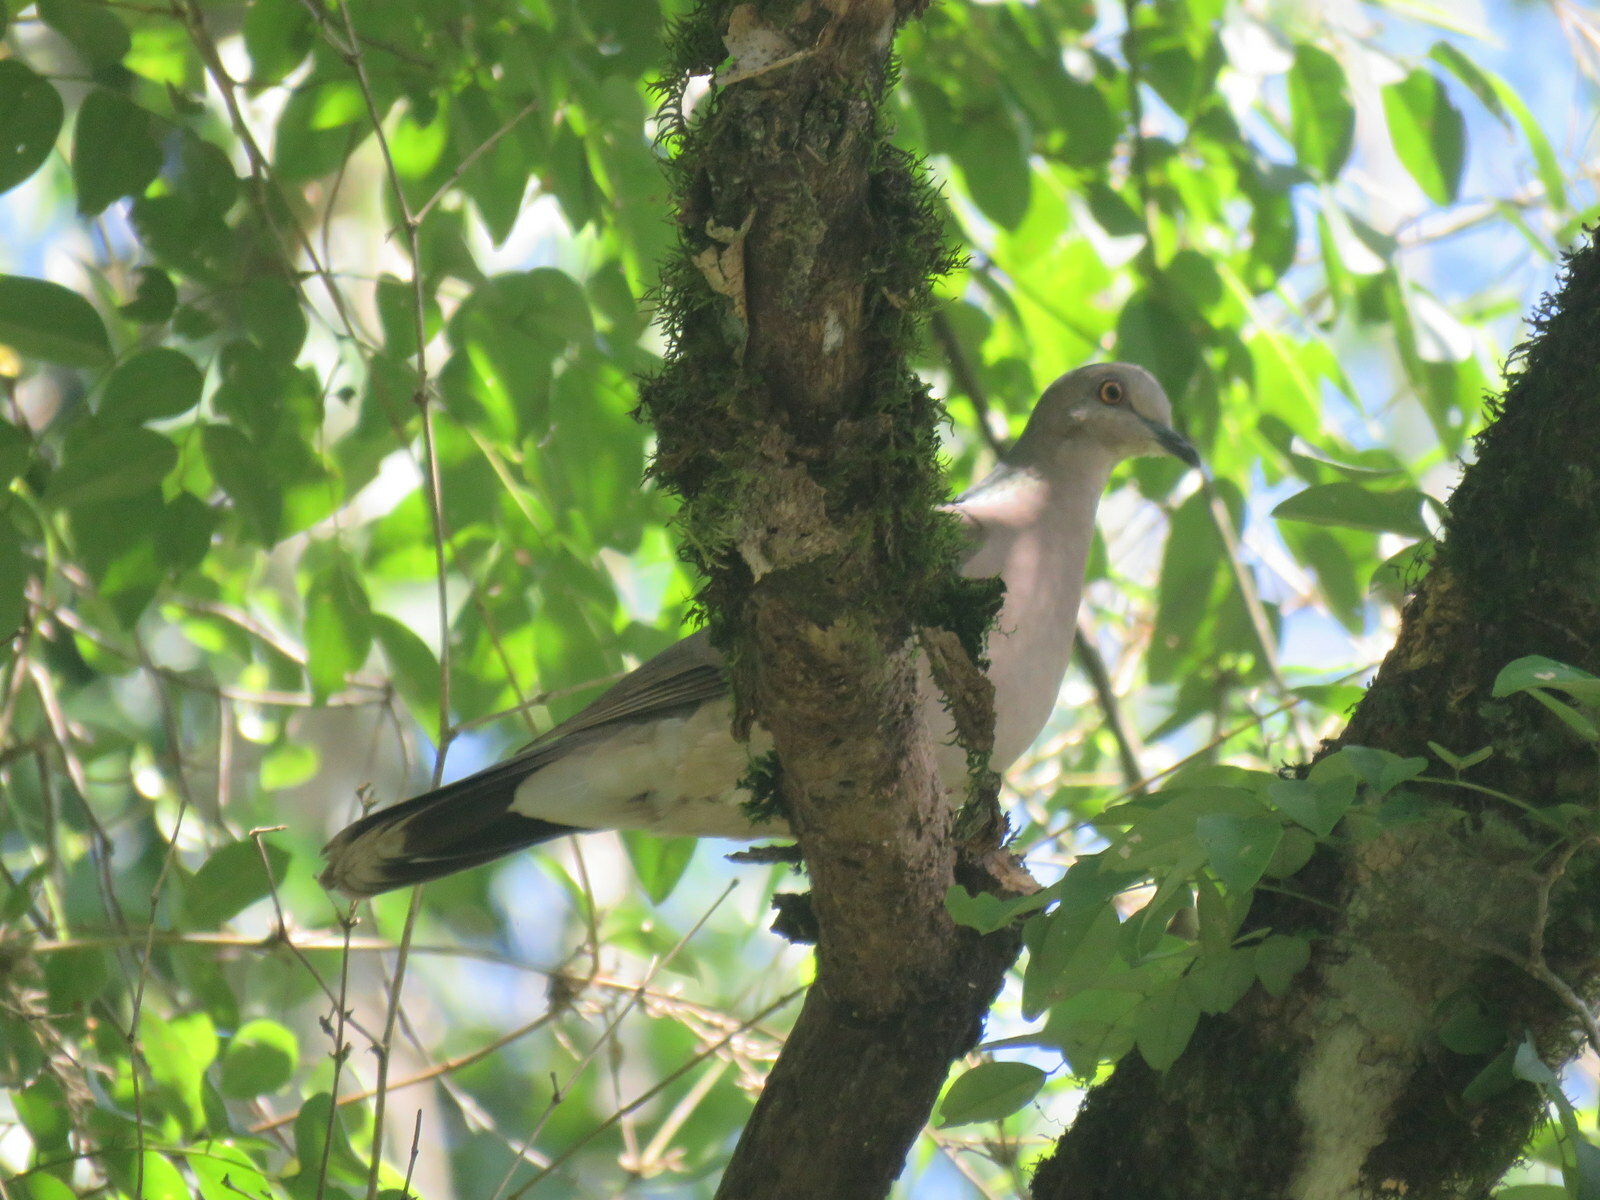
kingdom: Animalia
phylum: Chordata
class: Aves
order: Columbiformes
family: Columbidae
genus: Leptotila
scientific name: Leptotila verreauxi
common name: White-tipped dove
